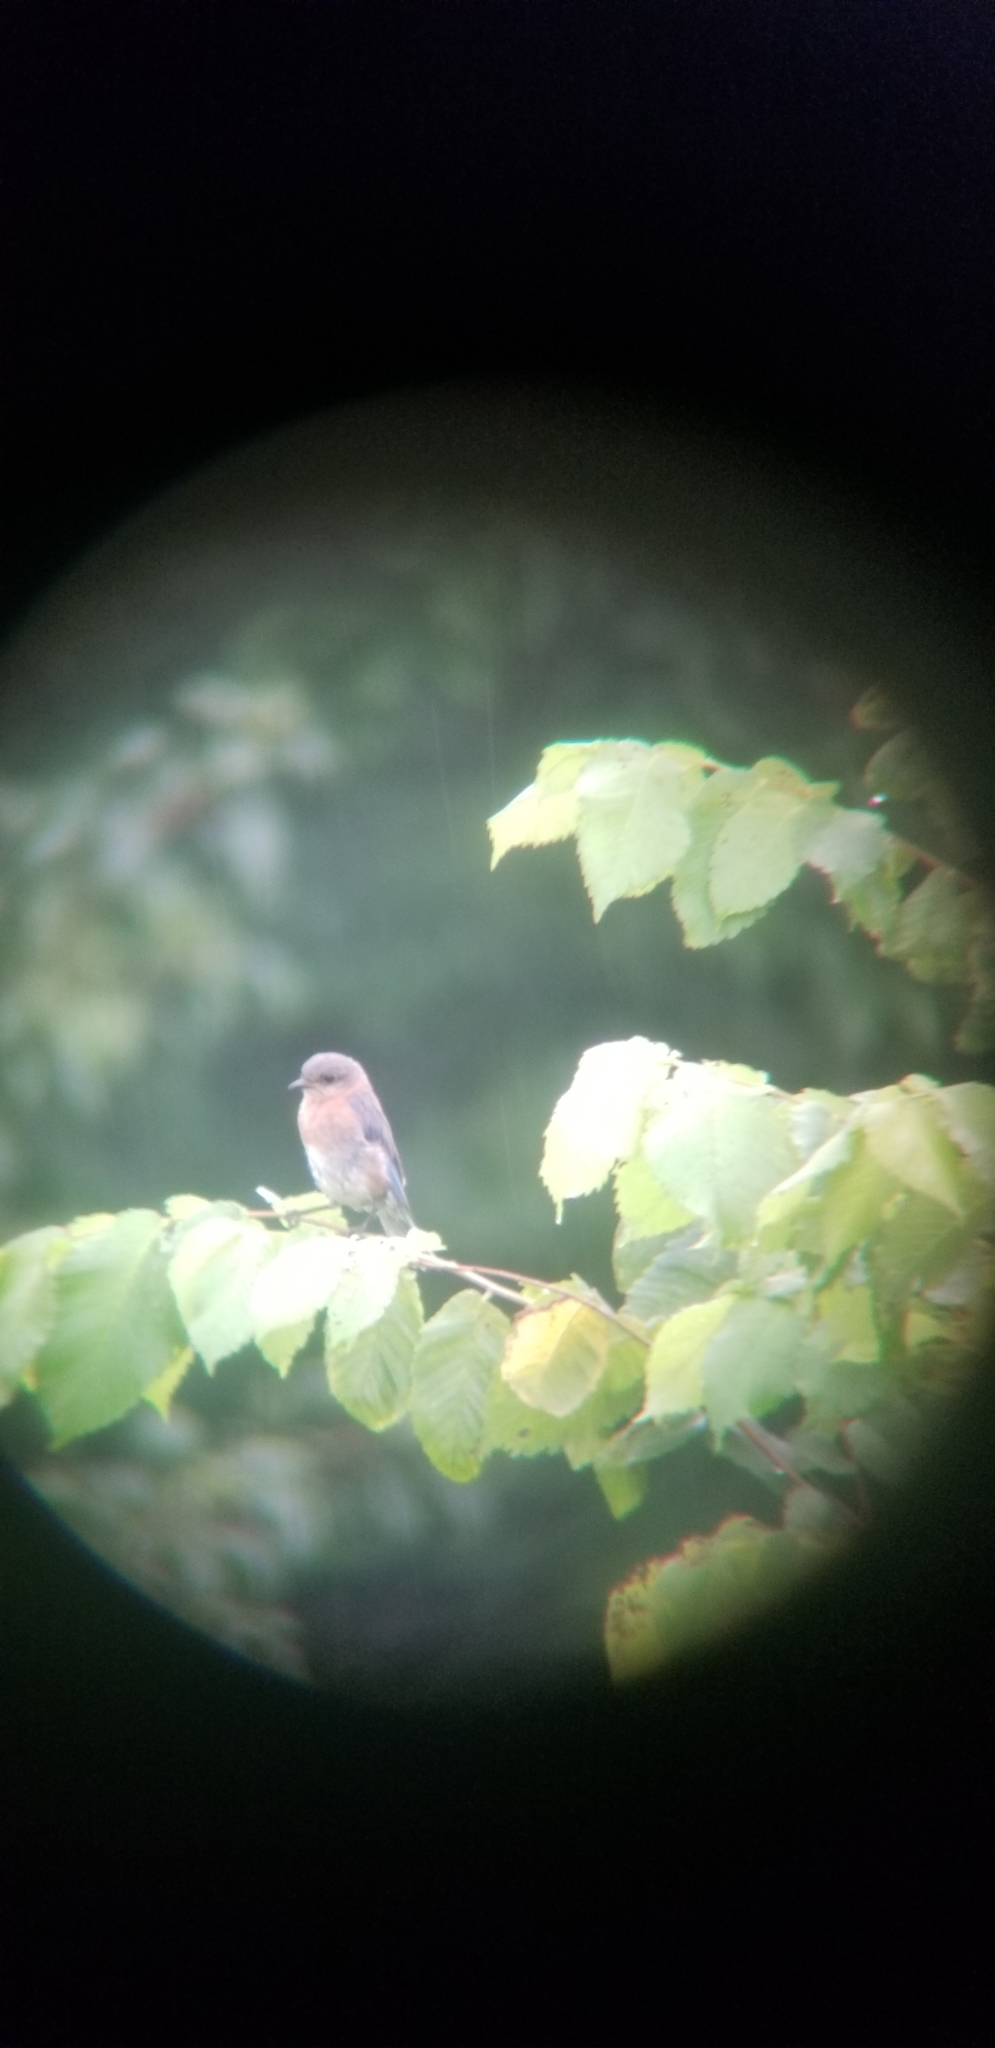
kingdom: Animalia
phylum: Chordata
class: Aves
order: Passeriformes
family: Turdidae
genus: Sialia
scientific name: Sialia sialis
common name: Eastern bluebird
